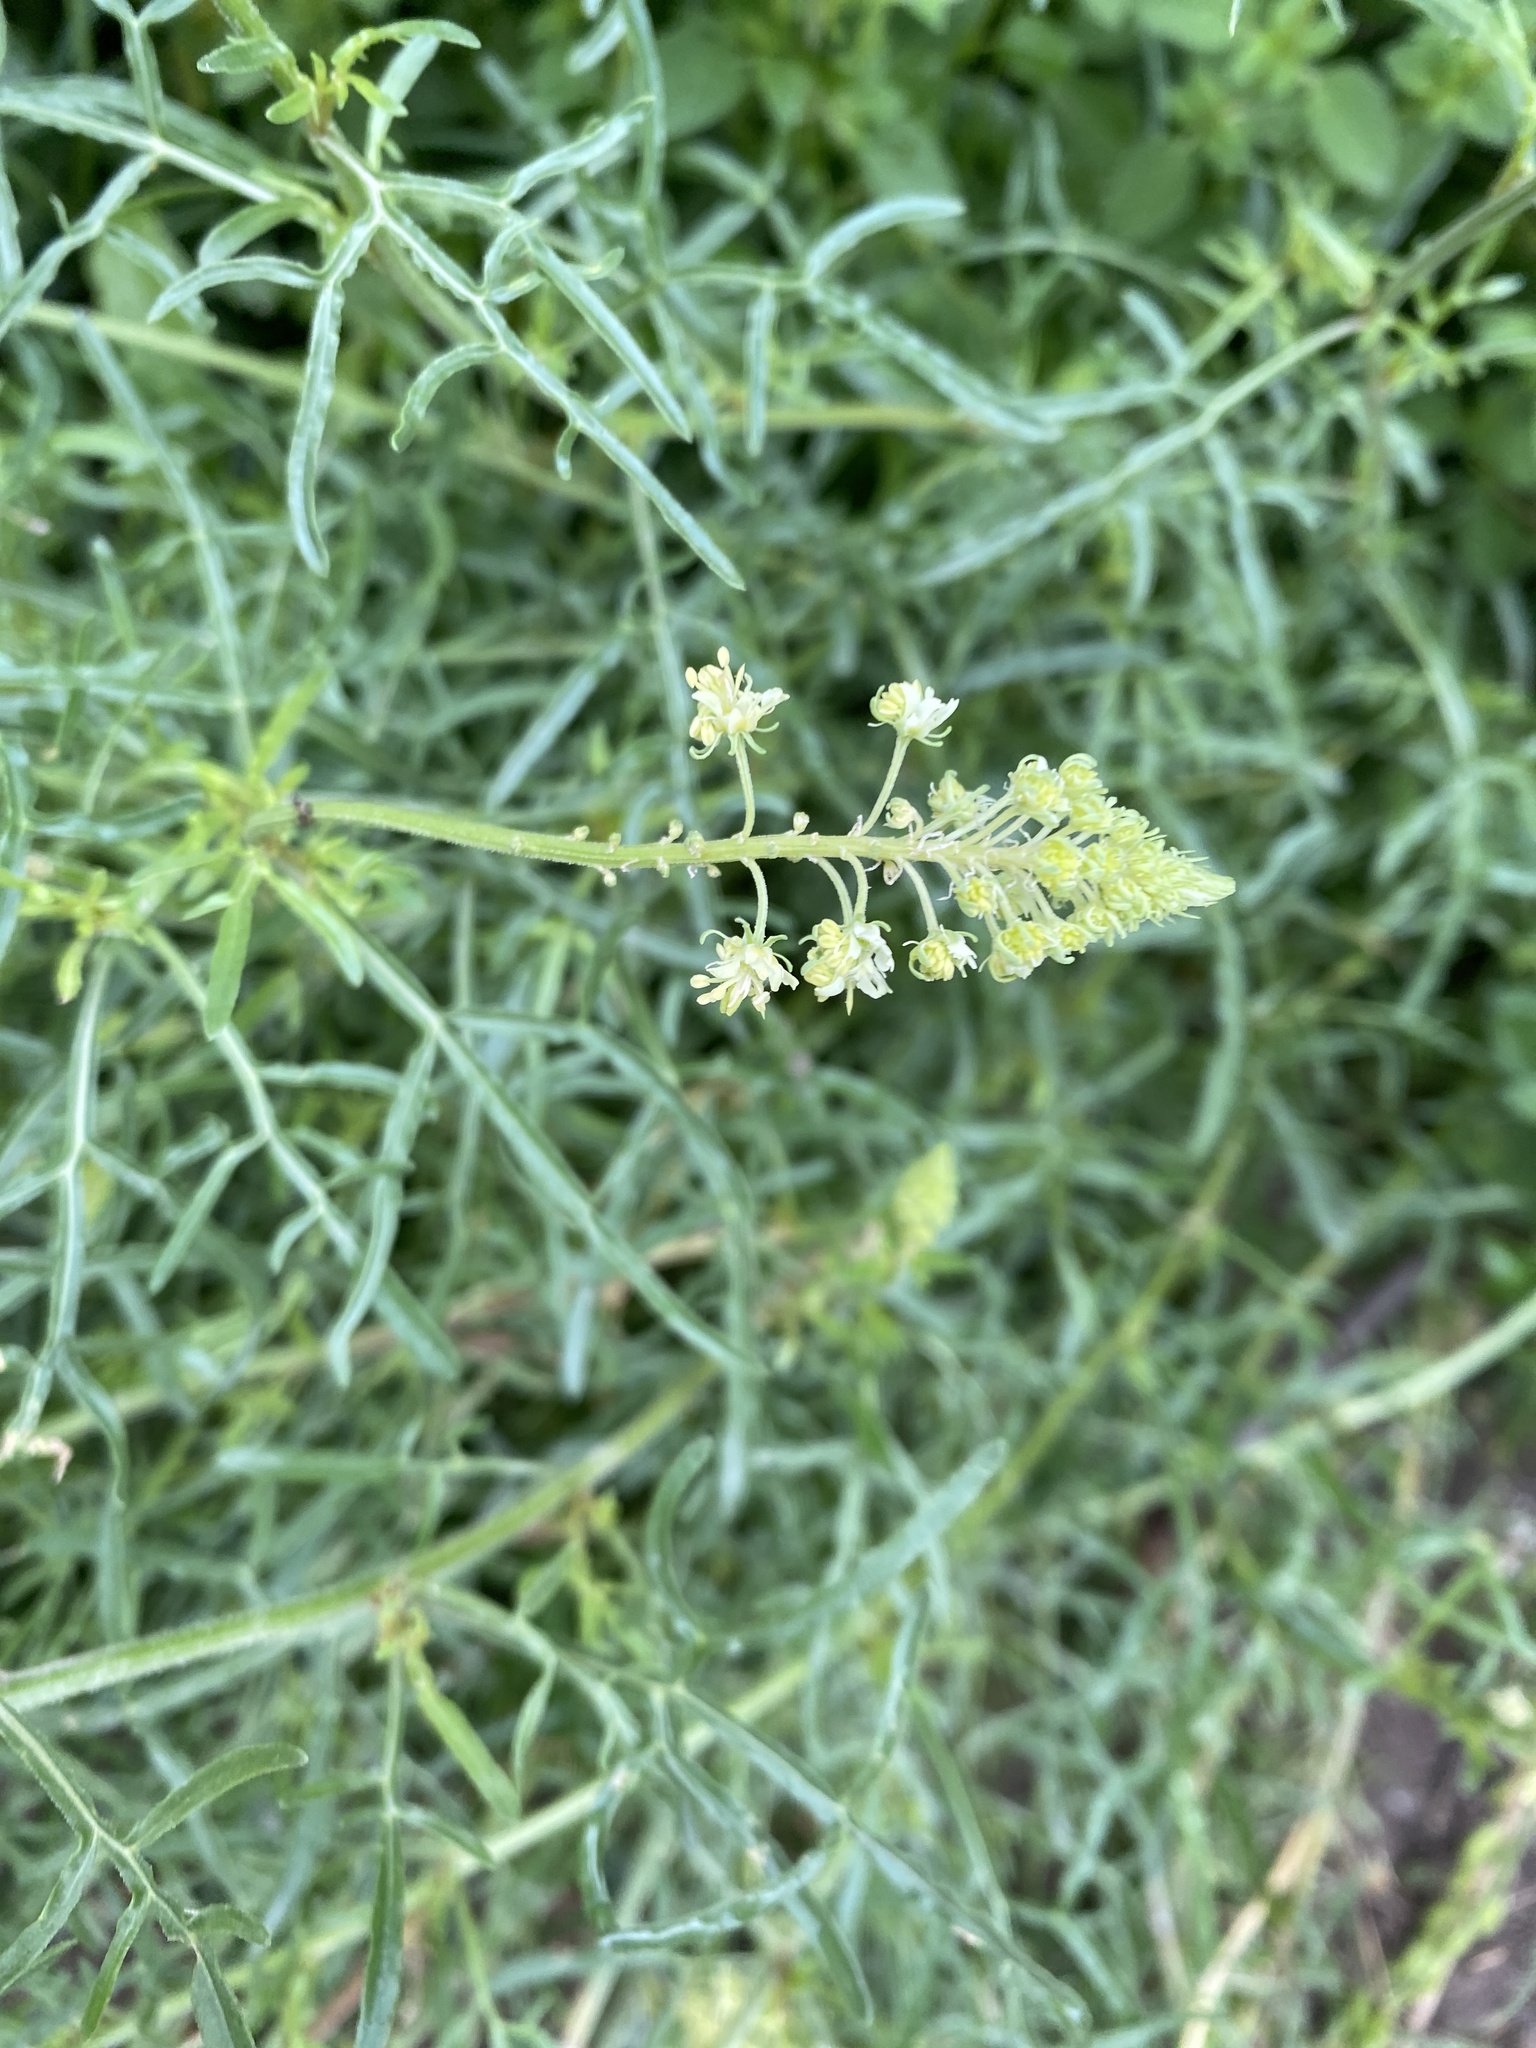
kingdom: Plantae
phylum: Tracheophyta
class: Magnoliopsida
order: Brassicales
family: Resedaceae
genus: Reseda
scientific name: Reseda lutea
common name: Wild mignonette
